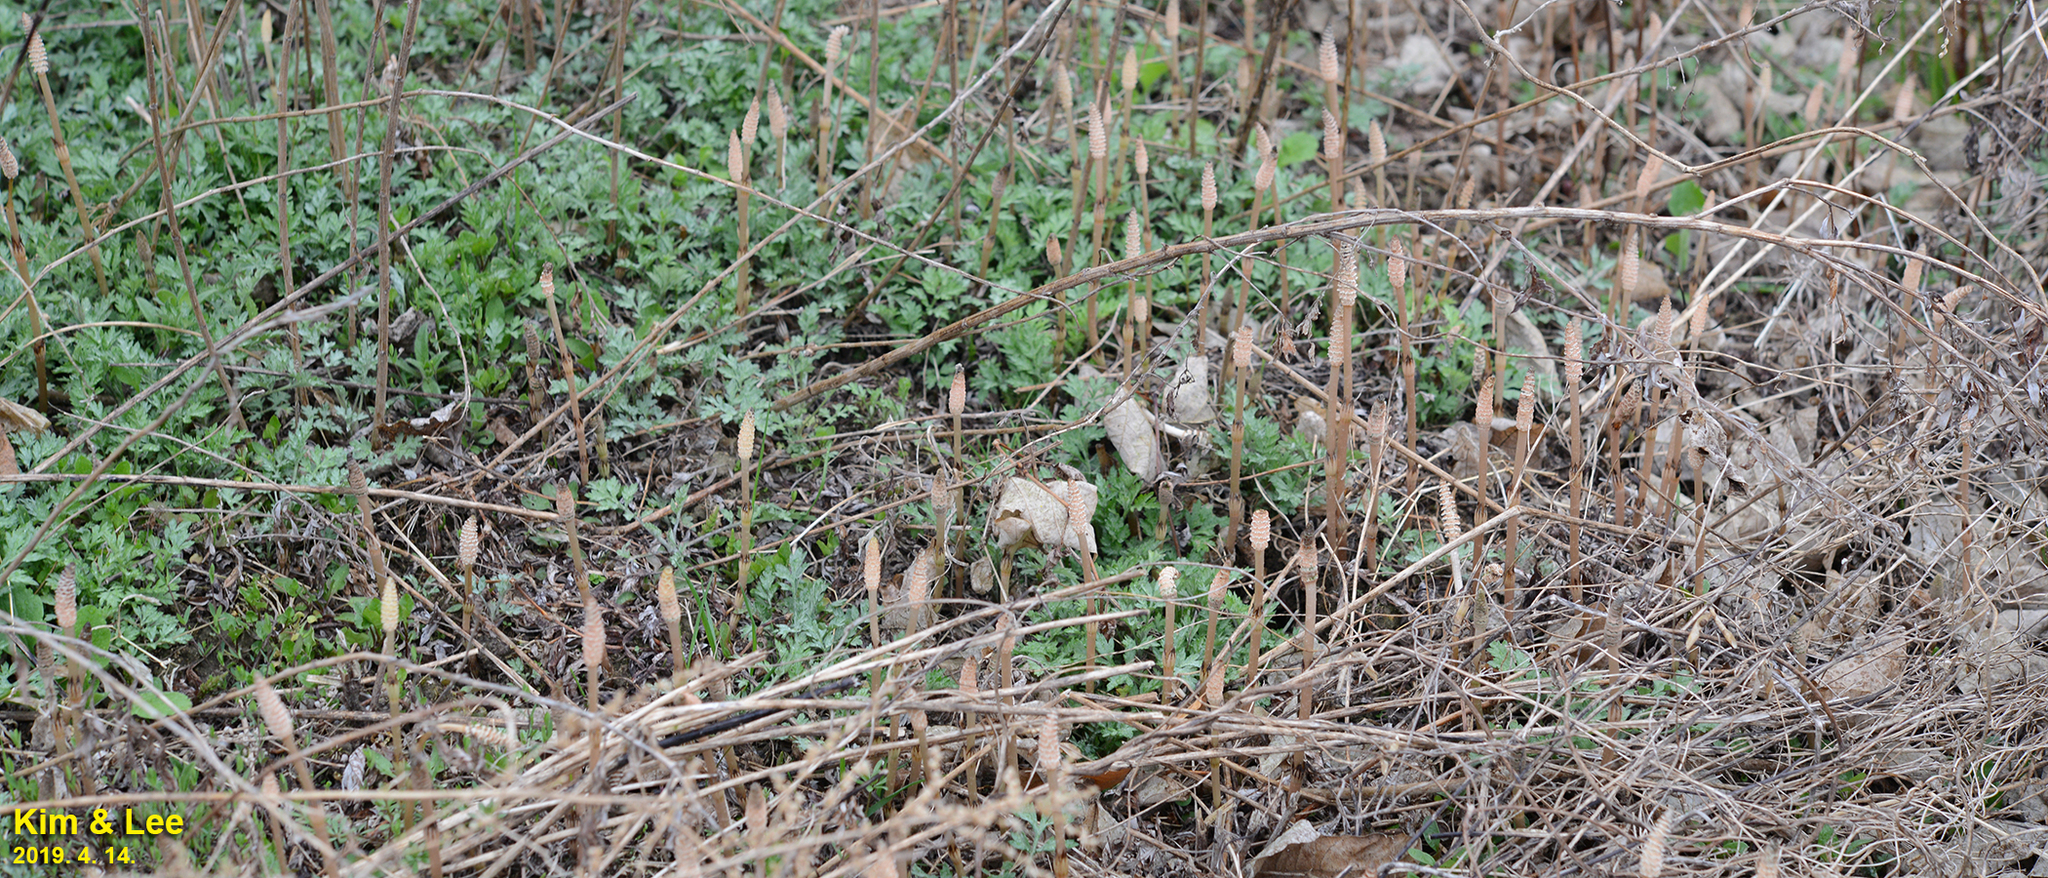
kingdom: Plantae
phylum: Tracheophyta
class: Polypodiopsida
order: Equisetales
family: Equisetaceae
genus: Equisetum
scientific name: Equisetum arvense
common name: Field horsetail
